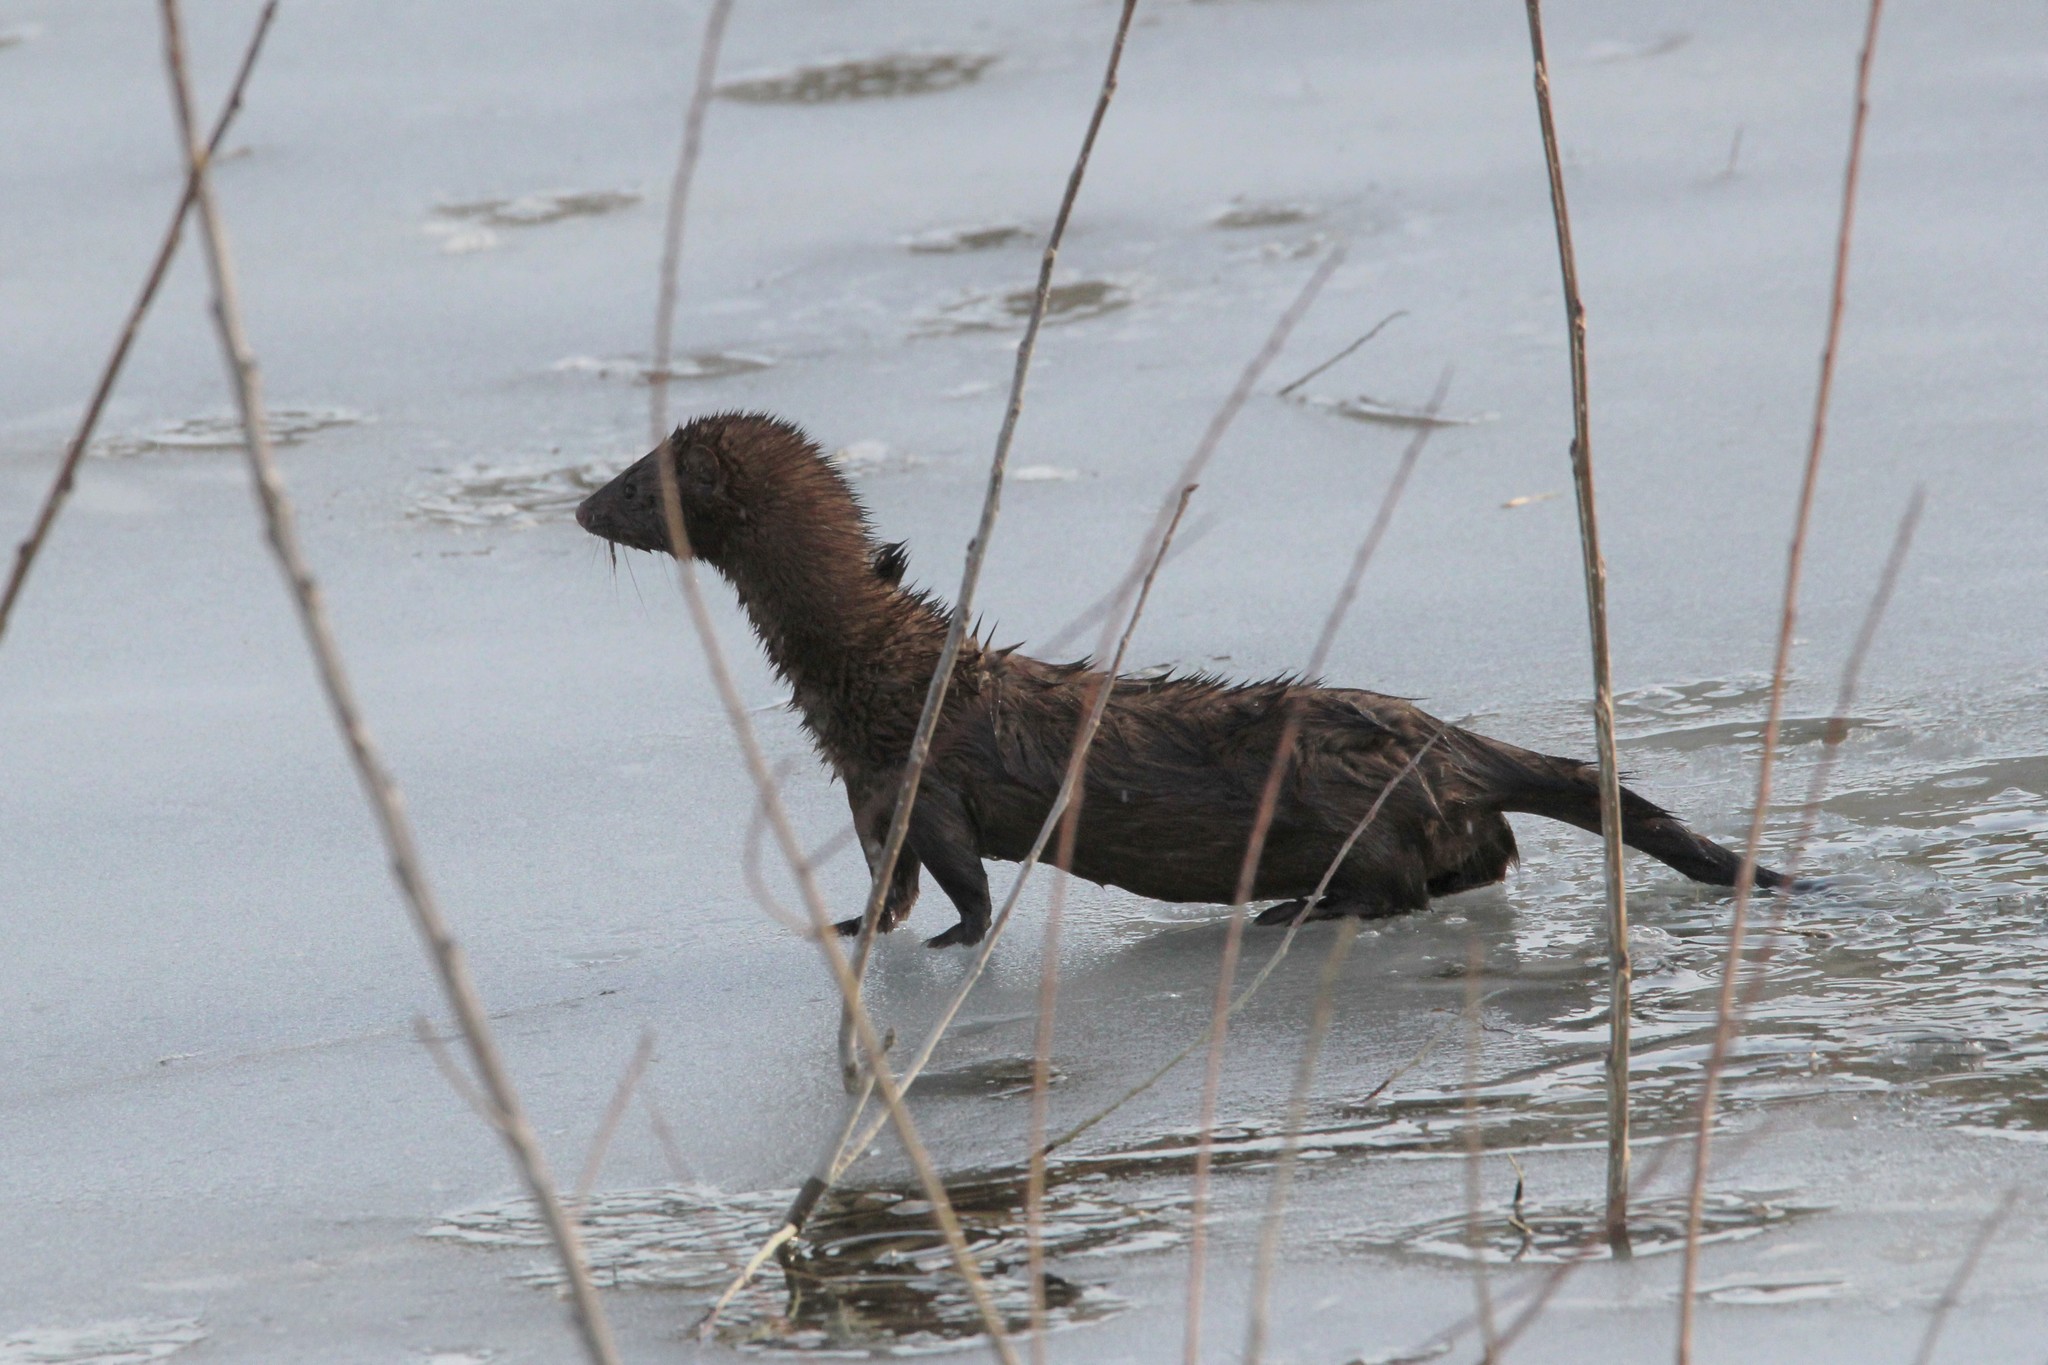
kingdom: Animalia
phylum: Chordata
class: Mammalia
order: Carnivora
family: Mustelidae
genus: Mustela
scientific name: Mustela
